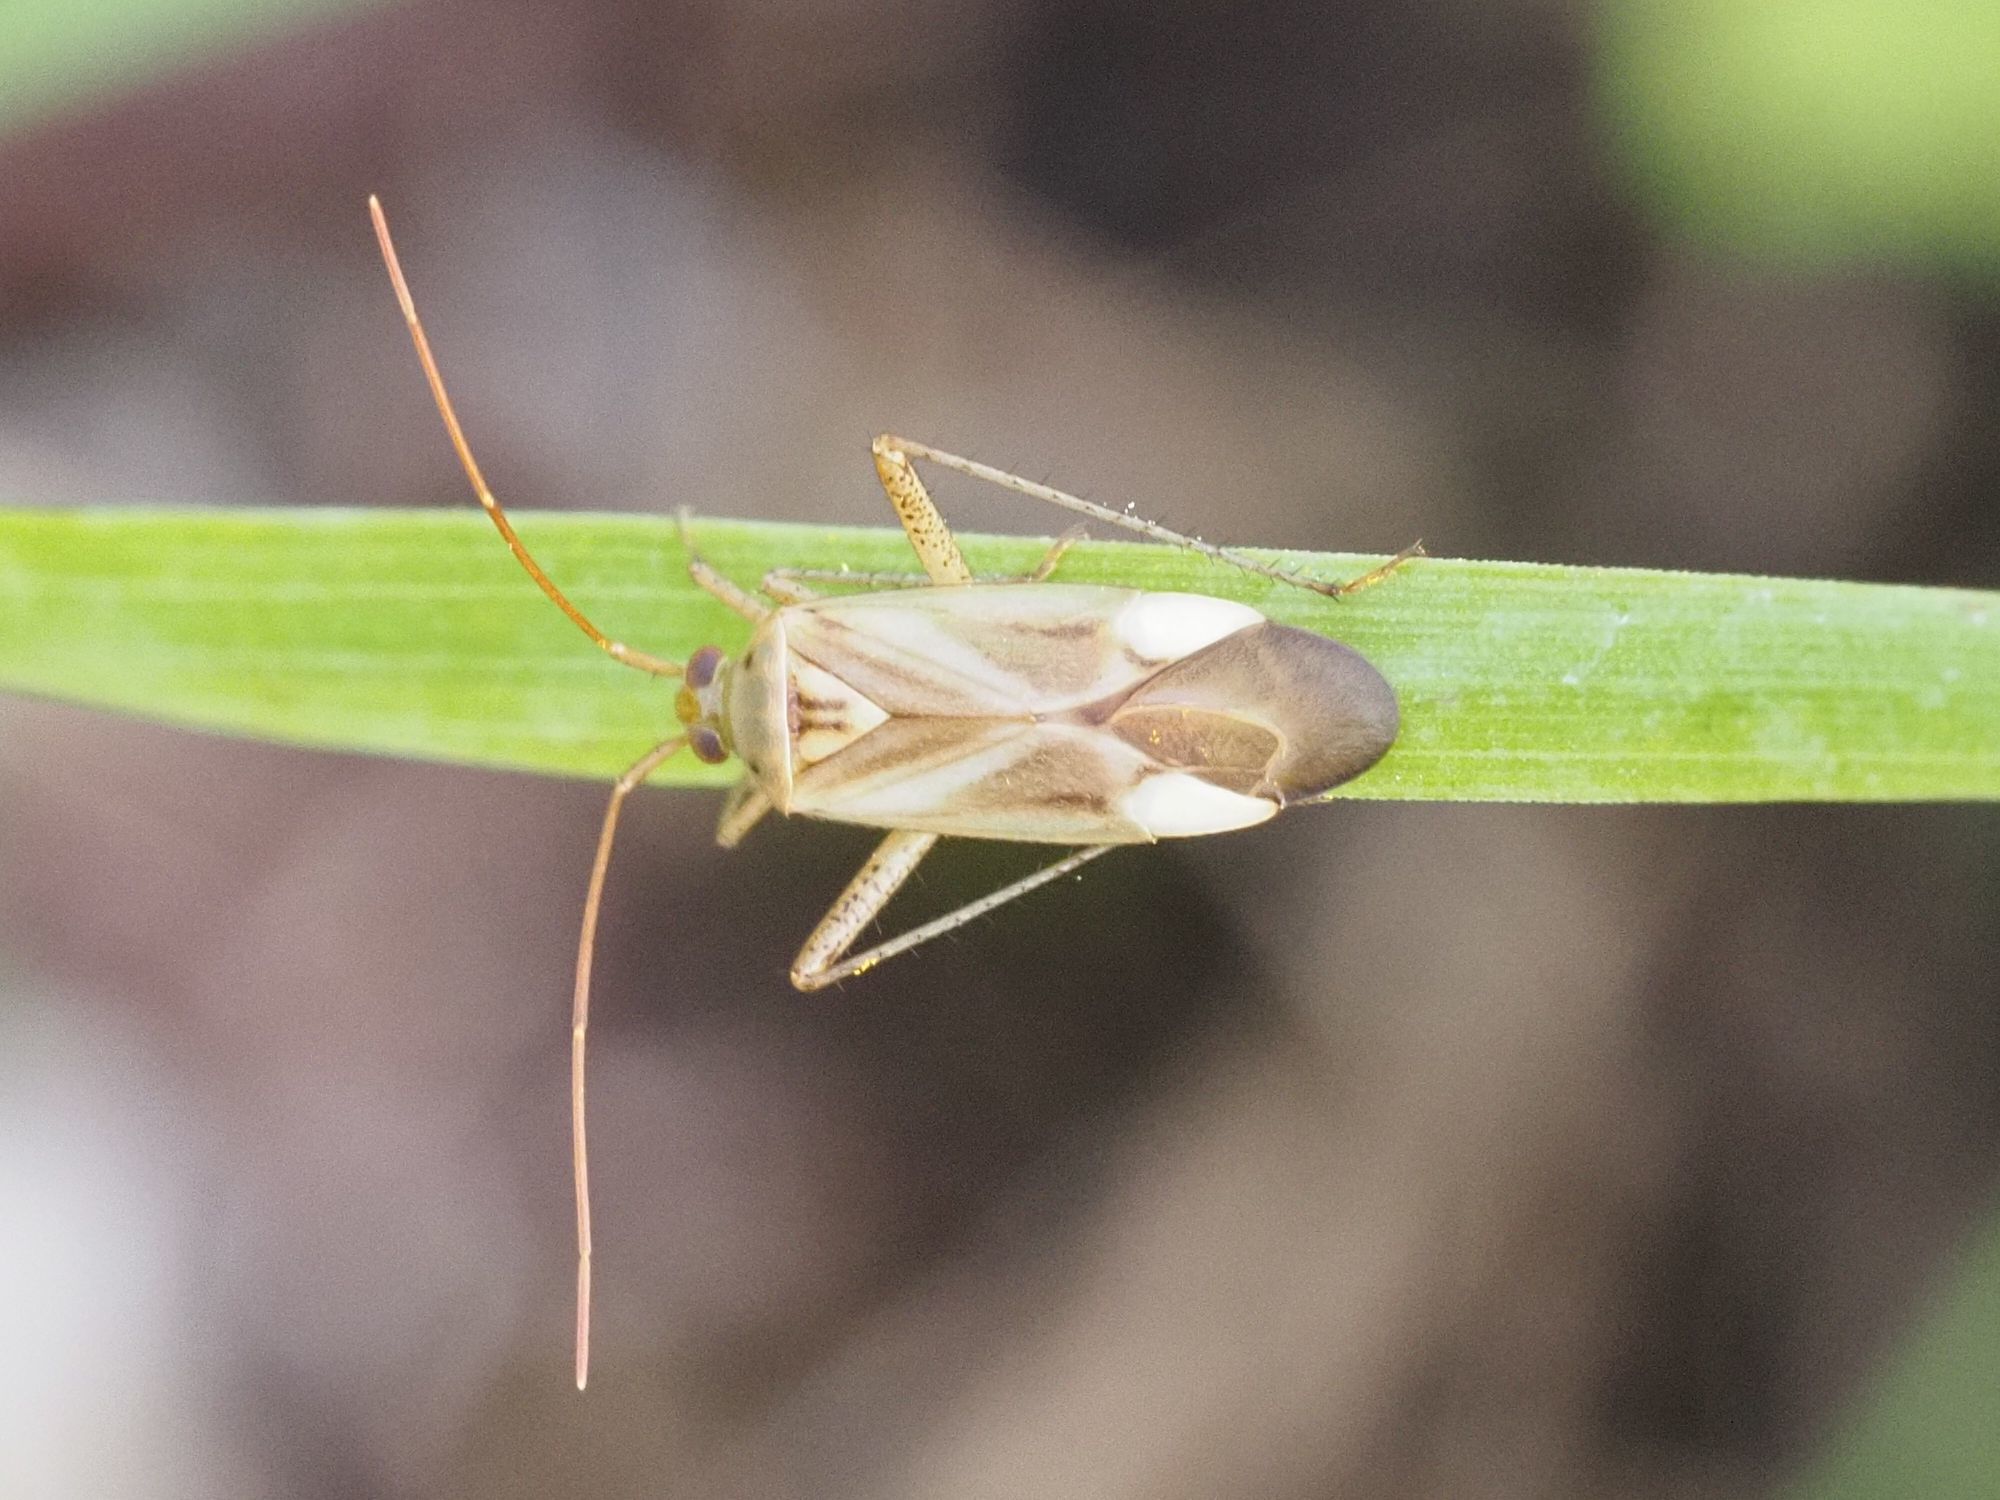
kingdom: Animalia
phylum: Arthropoda
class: Insecta
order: Hemiptera
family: Miridae
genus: Adelphocoris
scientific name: Adelphocoris lineolatus
